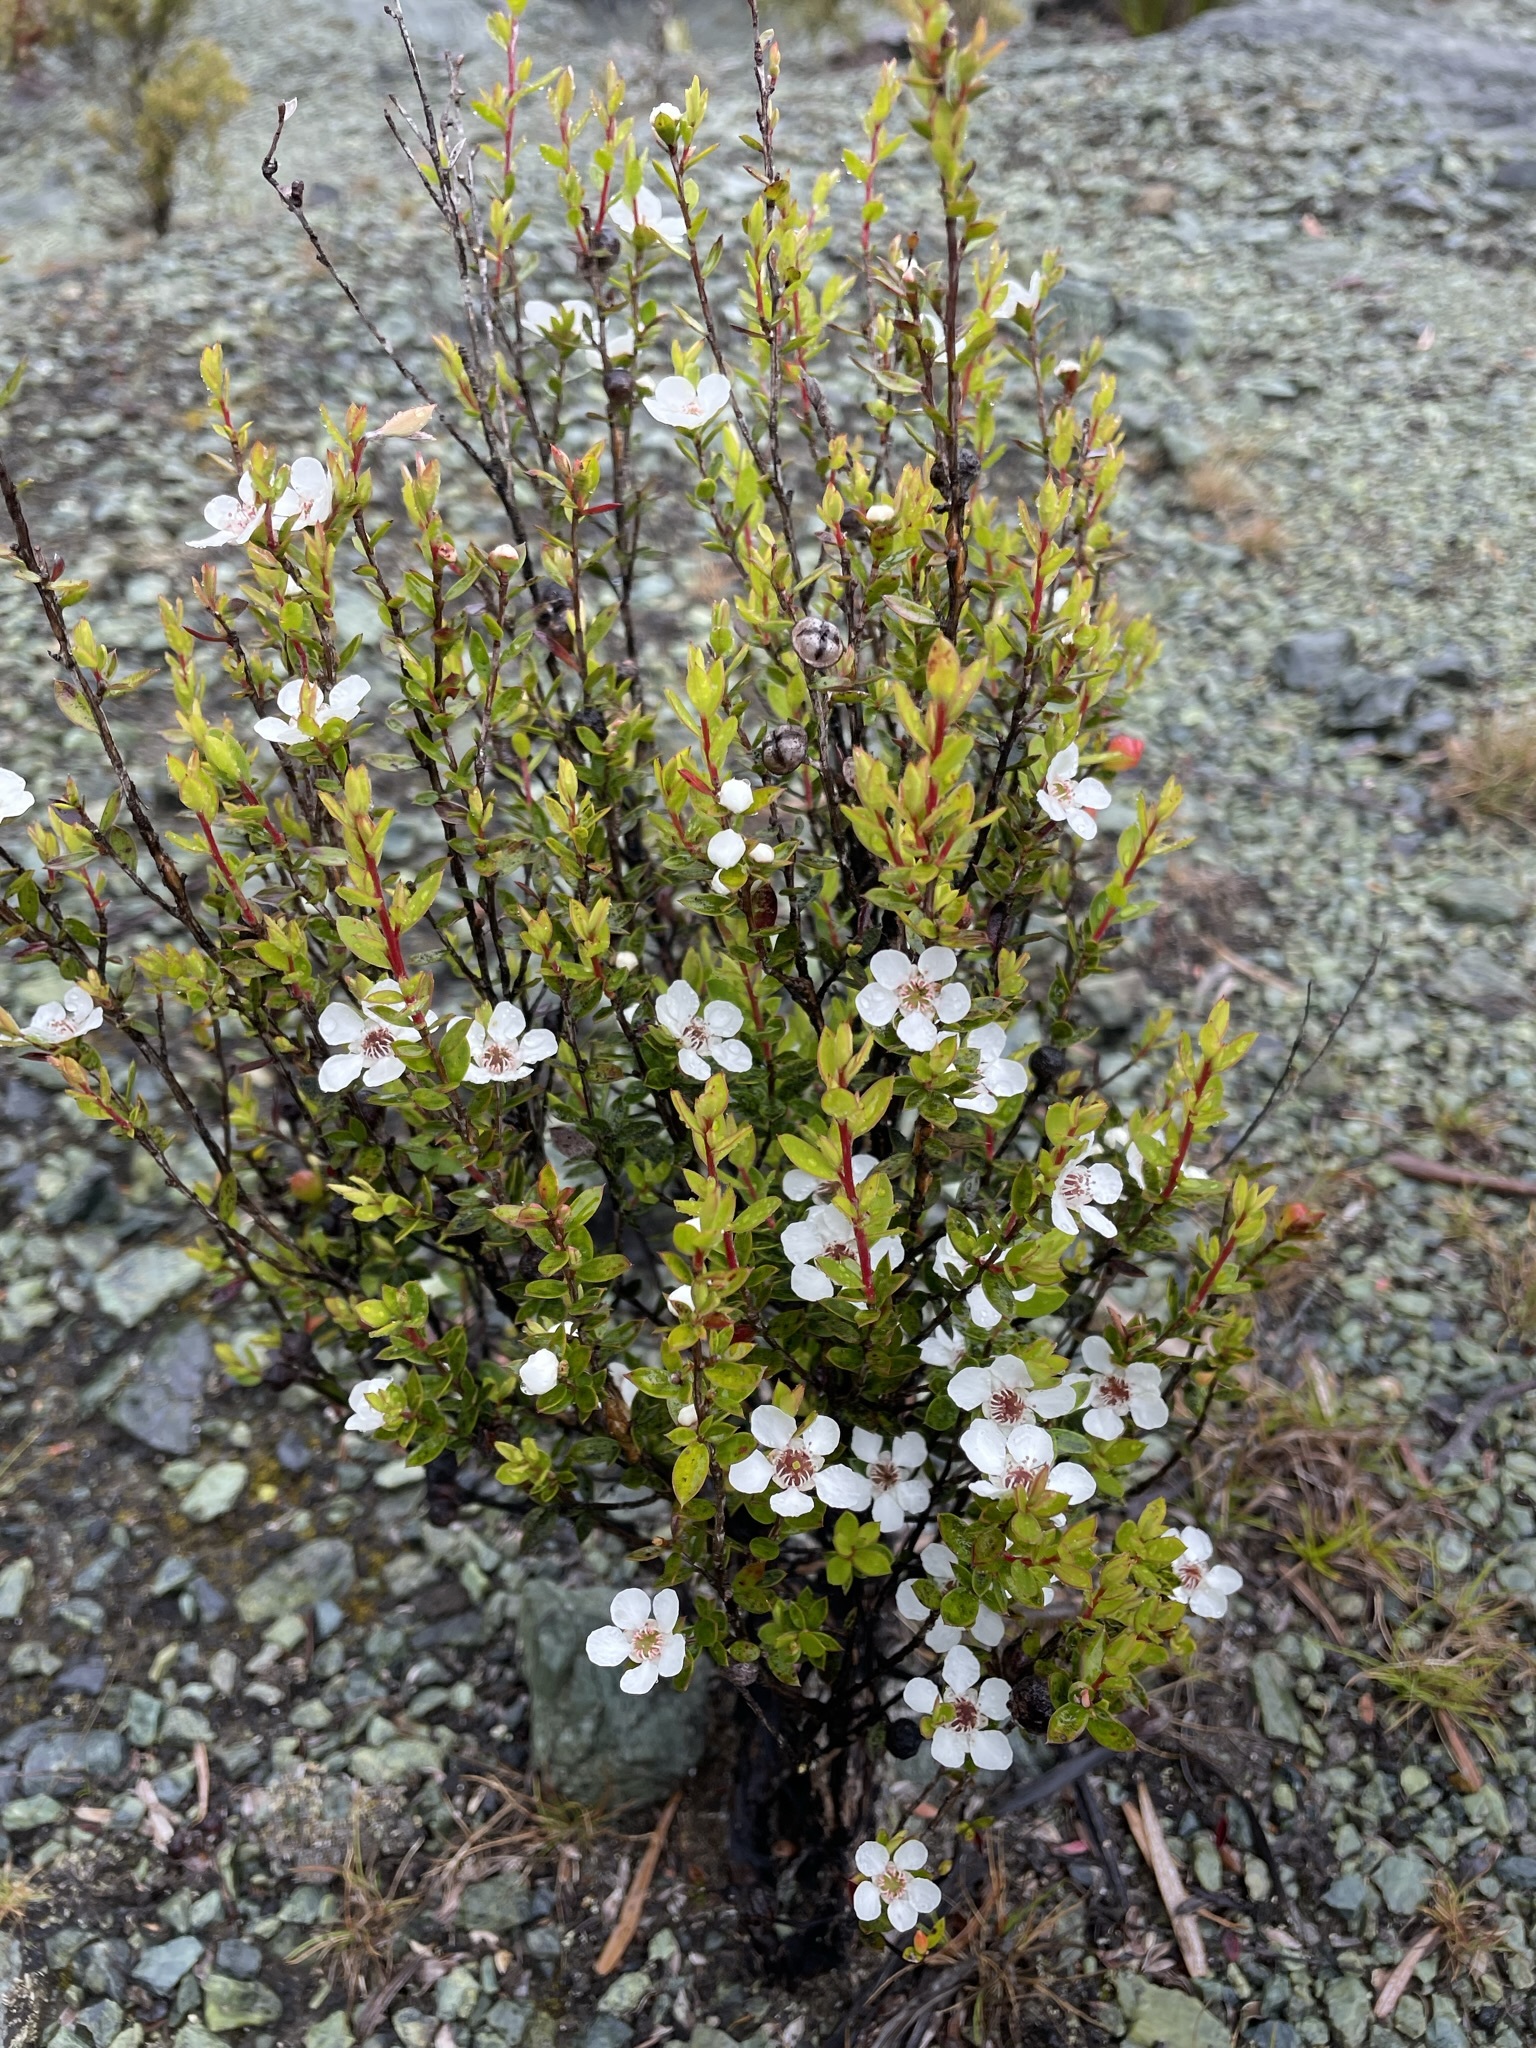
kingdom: Plantae
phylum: Tracheophyta
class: Magnoliopsida
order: Myrtales
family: Myrtaceae
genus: Leptospermum
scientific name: Leptospermum scoparium
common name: Broom tea-tree
